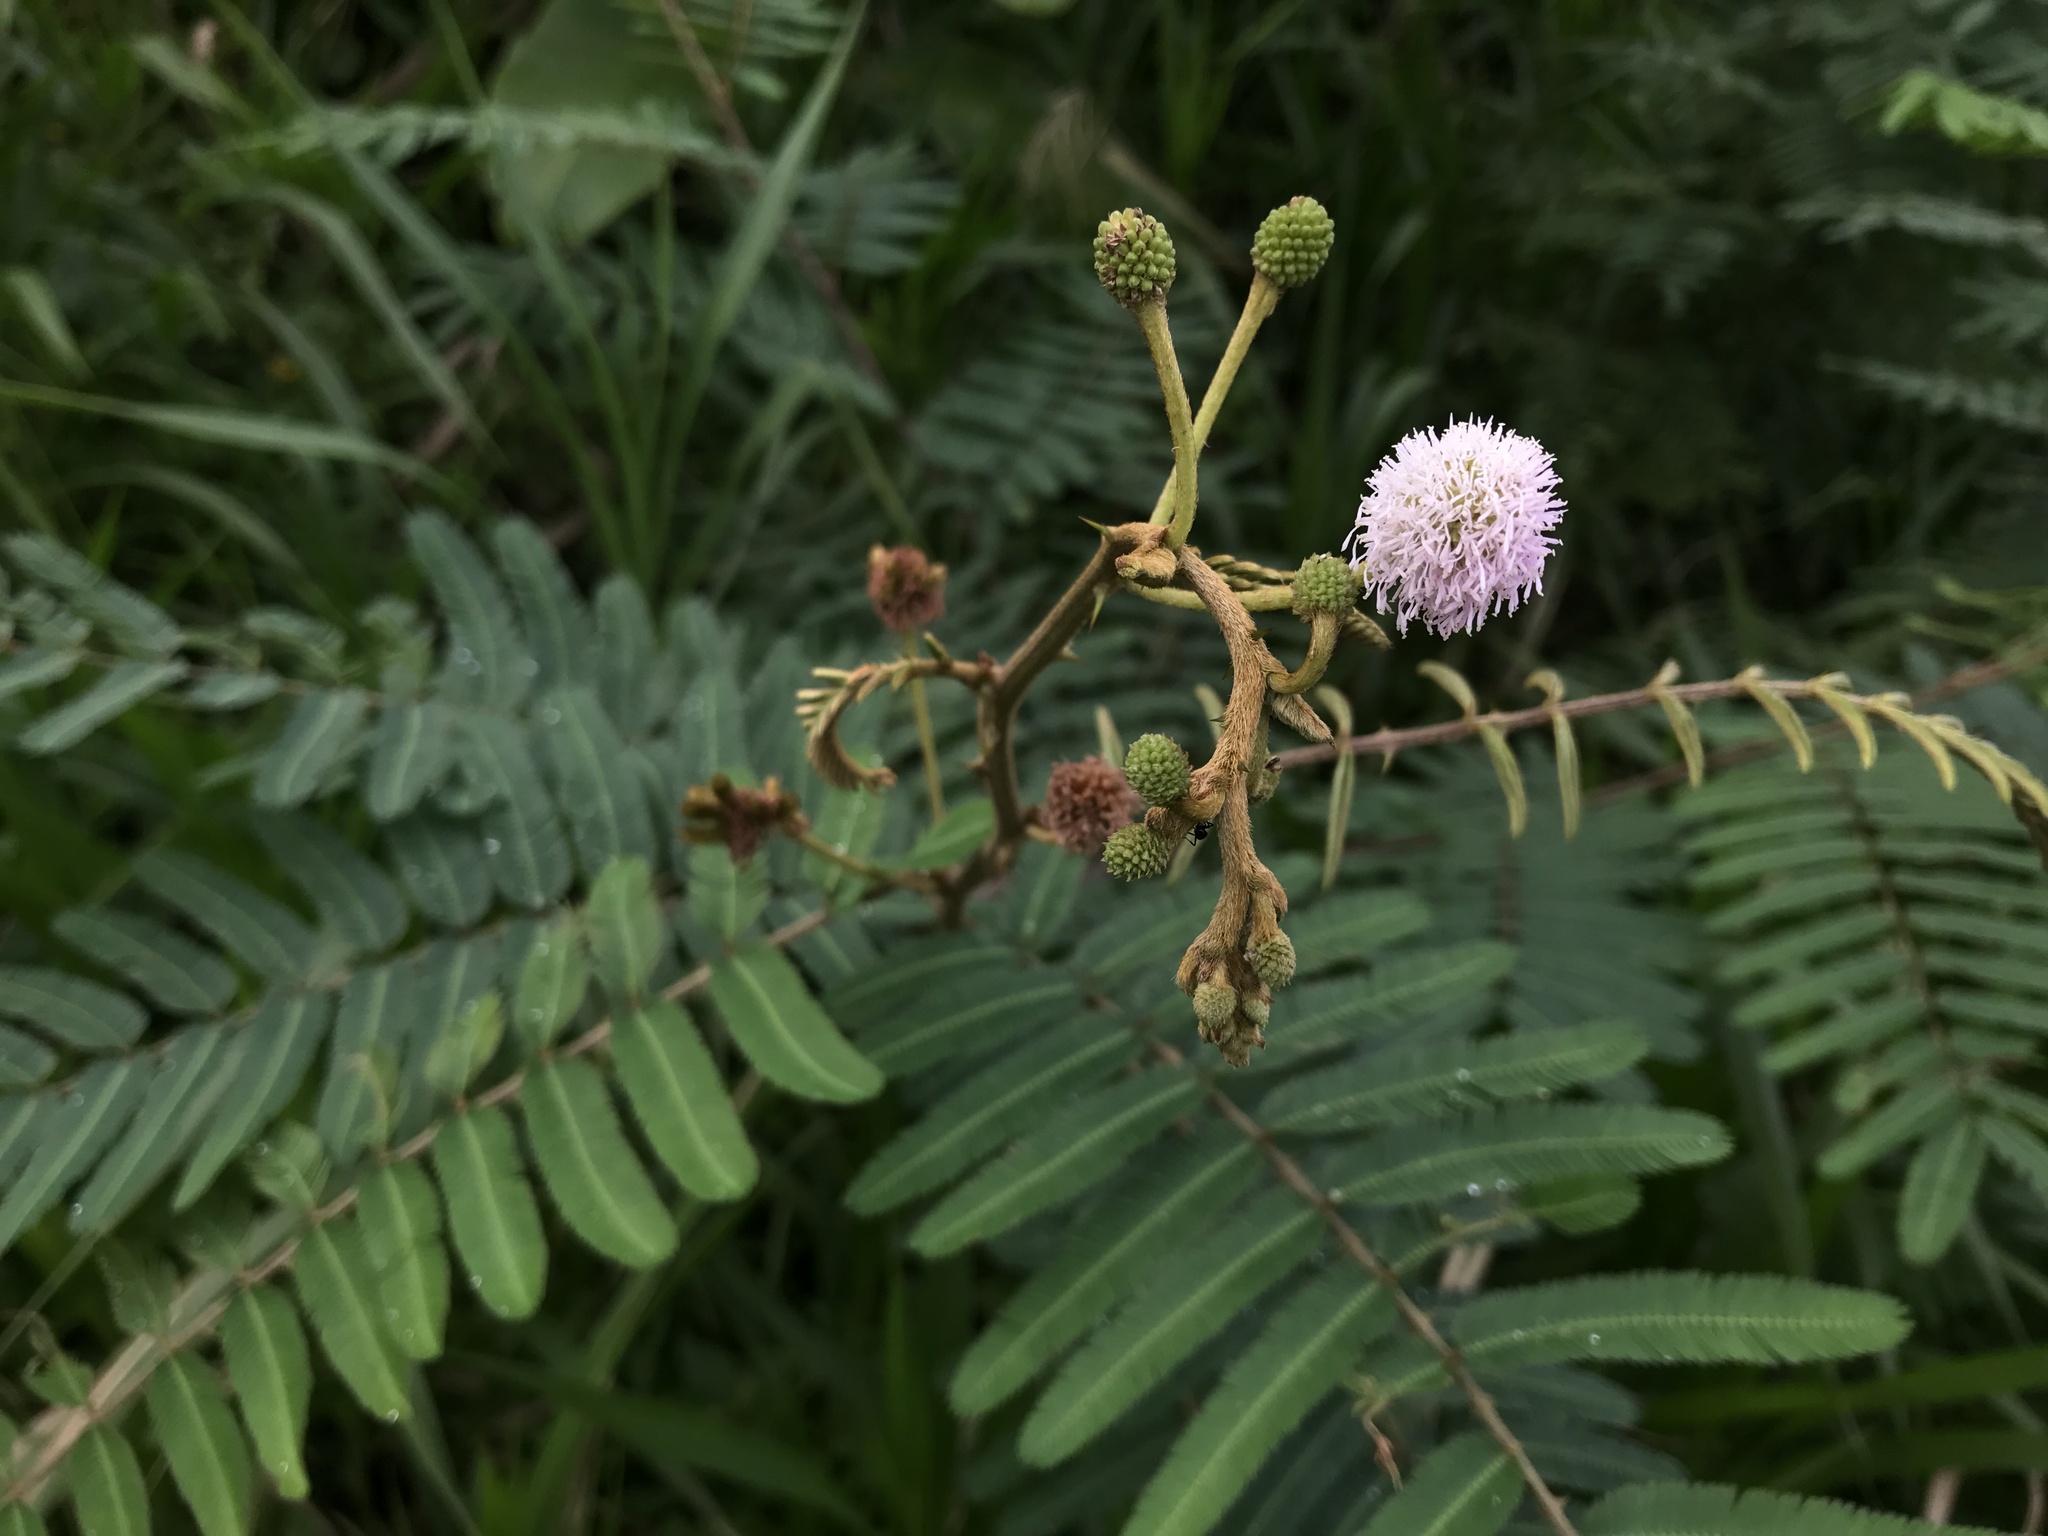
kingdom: Plantae
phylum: Tracheophyta
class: Magnoliopsida
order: Fabales
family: Fabaceae
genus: Mimosa
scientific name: Mimosa pigra
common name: Black mimosa
